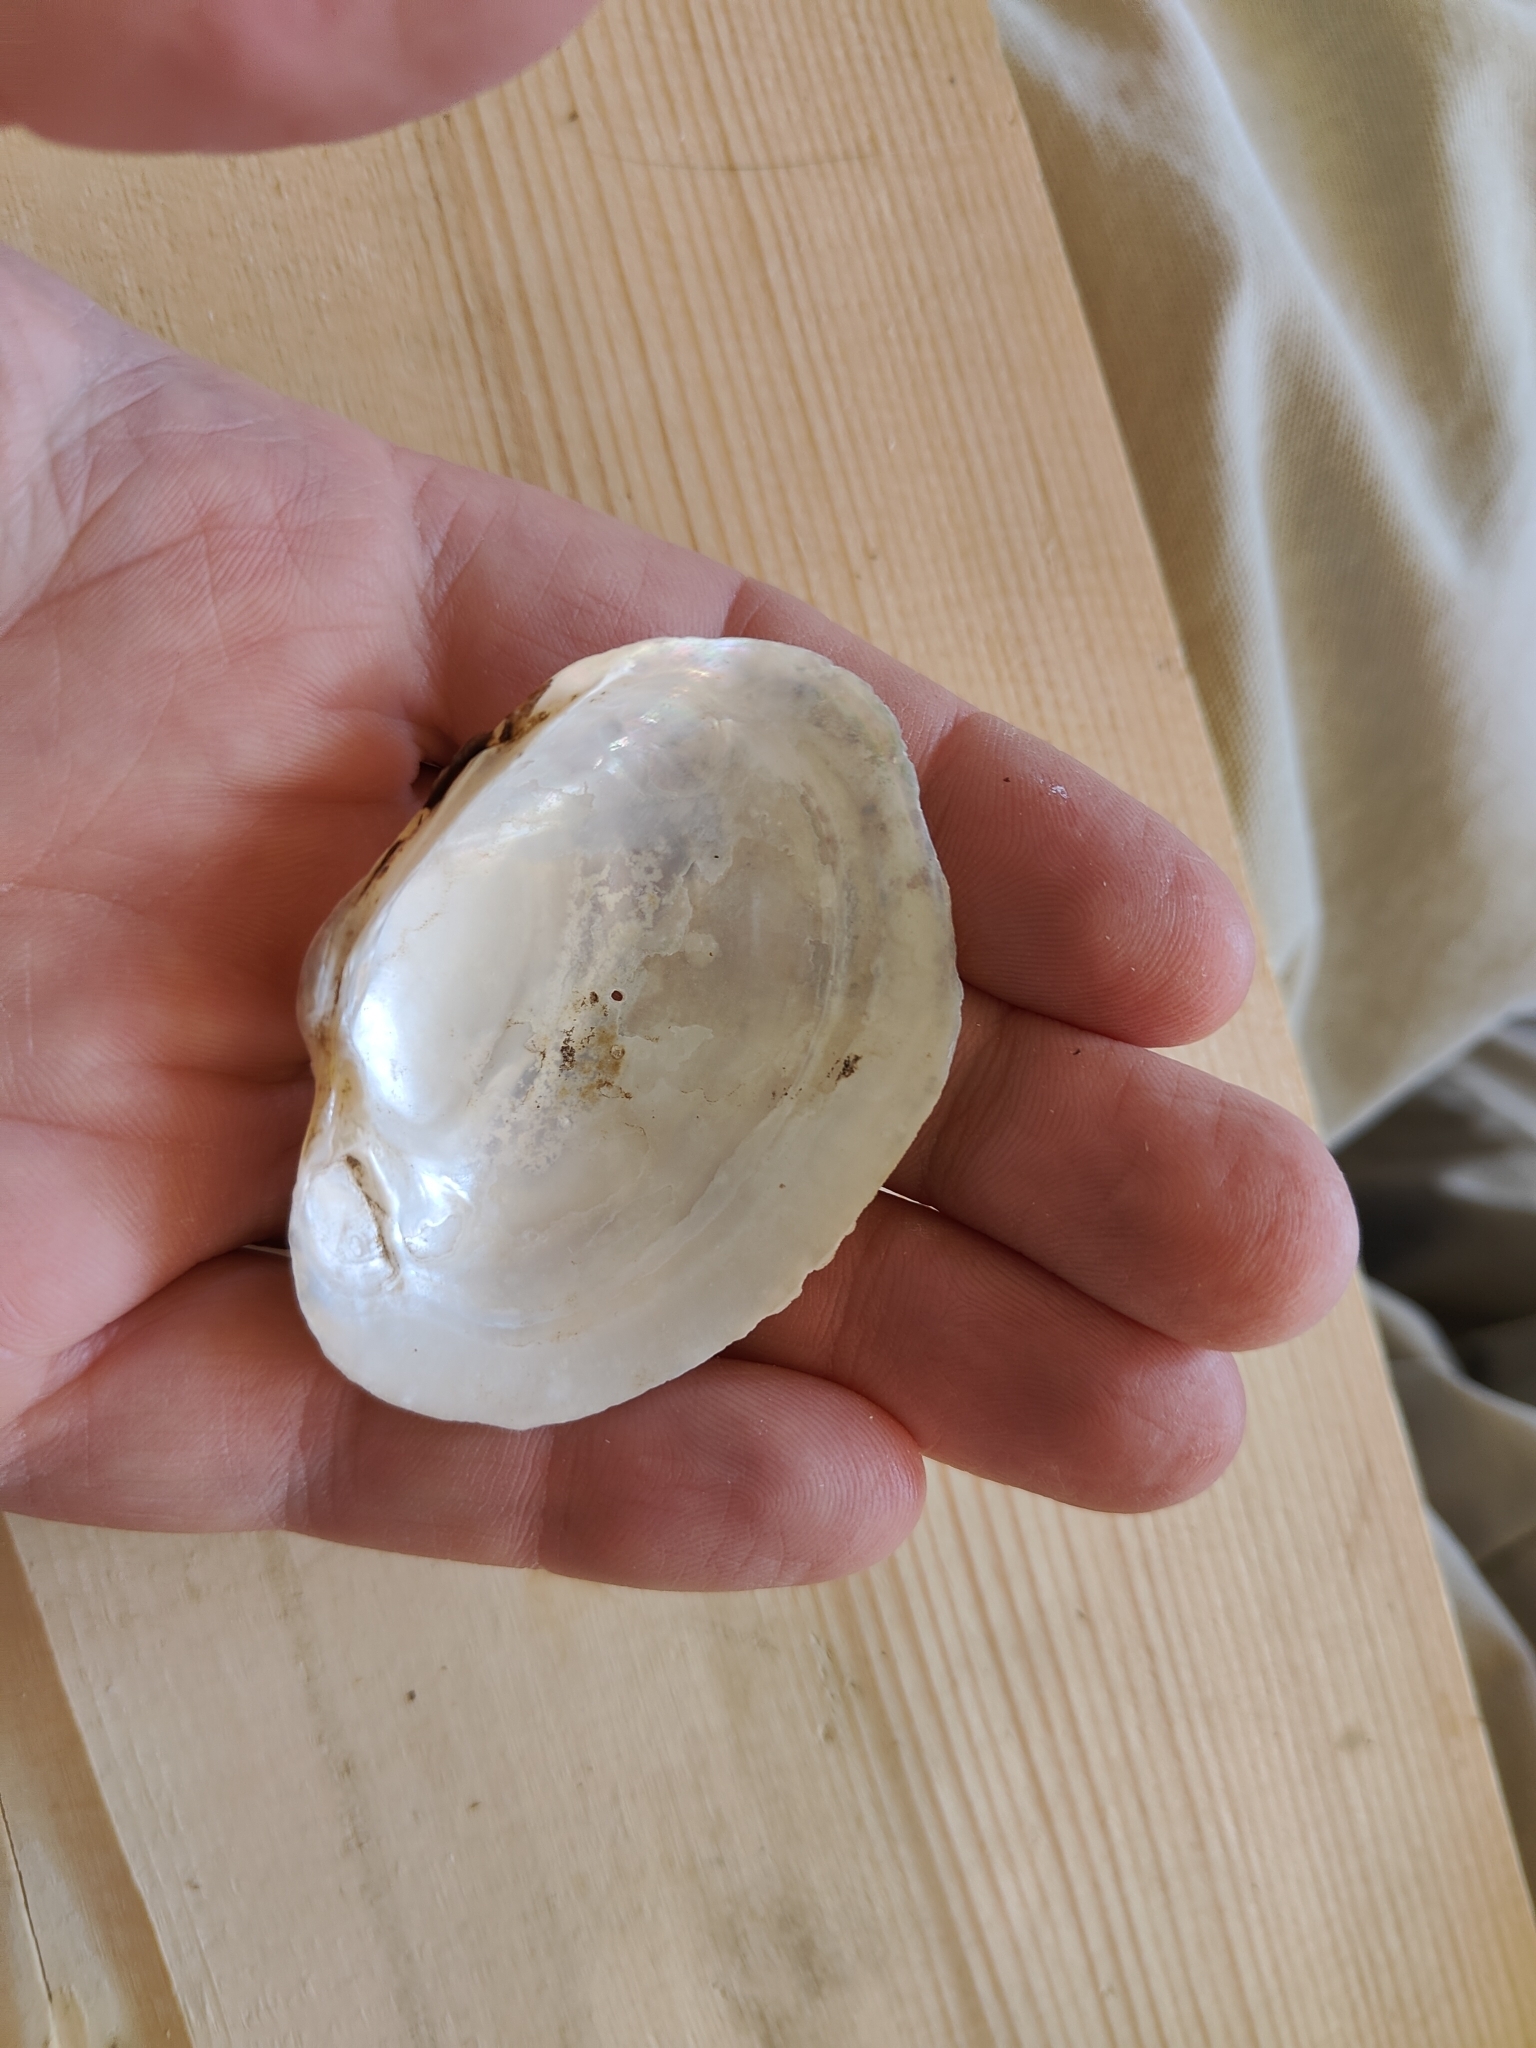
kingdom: Animalia
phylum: Mollusca
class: Bivalvia
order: Unionida
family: Unionidae
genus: Lampsilis
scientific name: Lampsilis cardium
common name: Plain pocketbook
